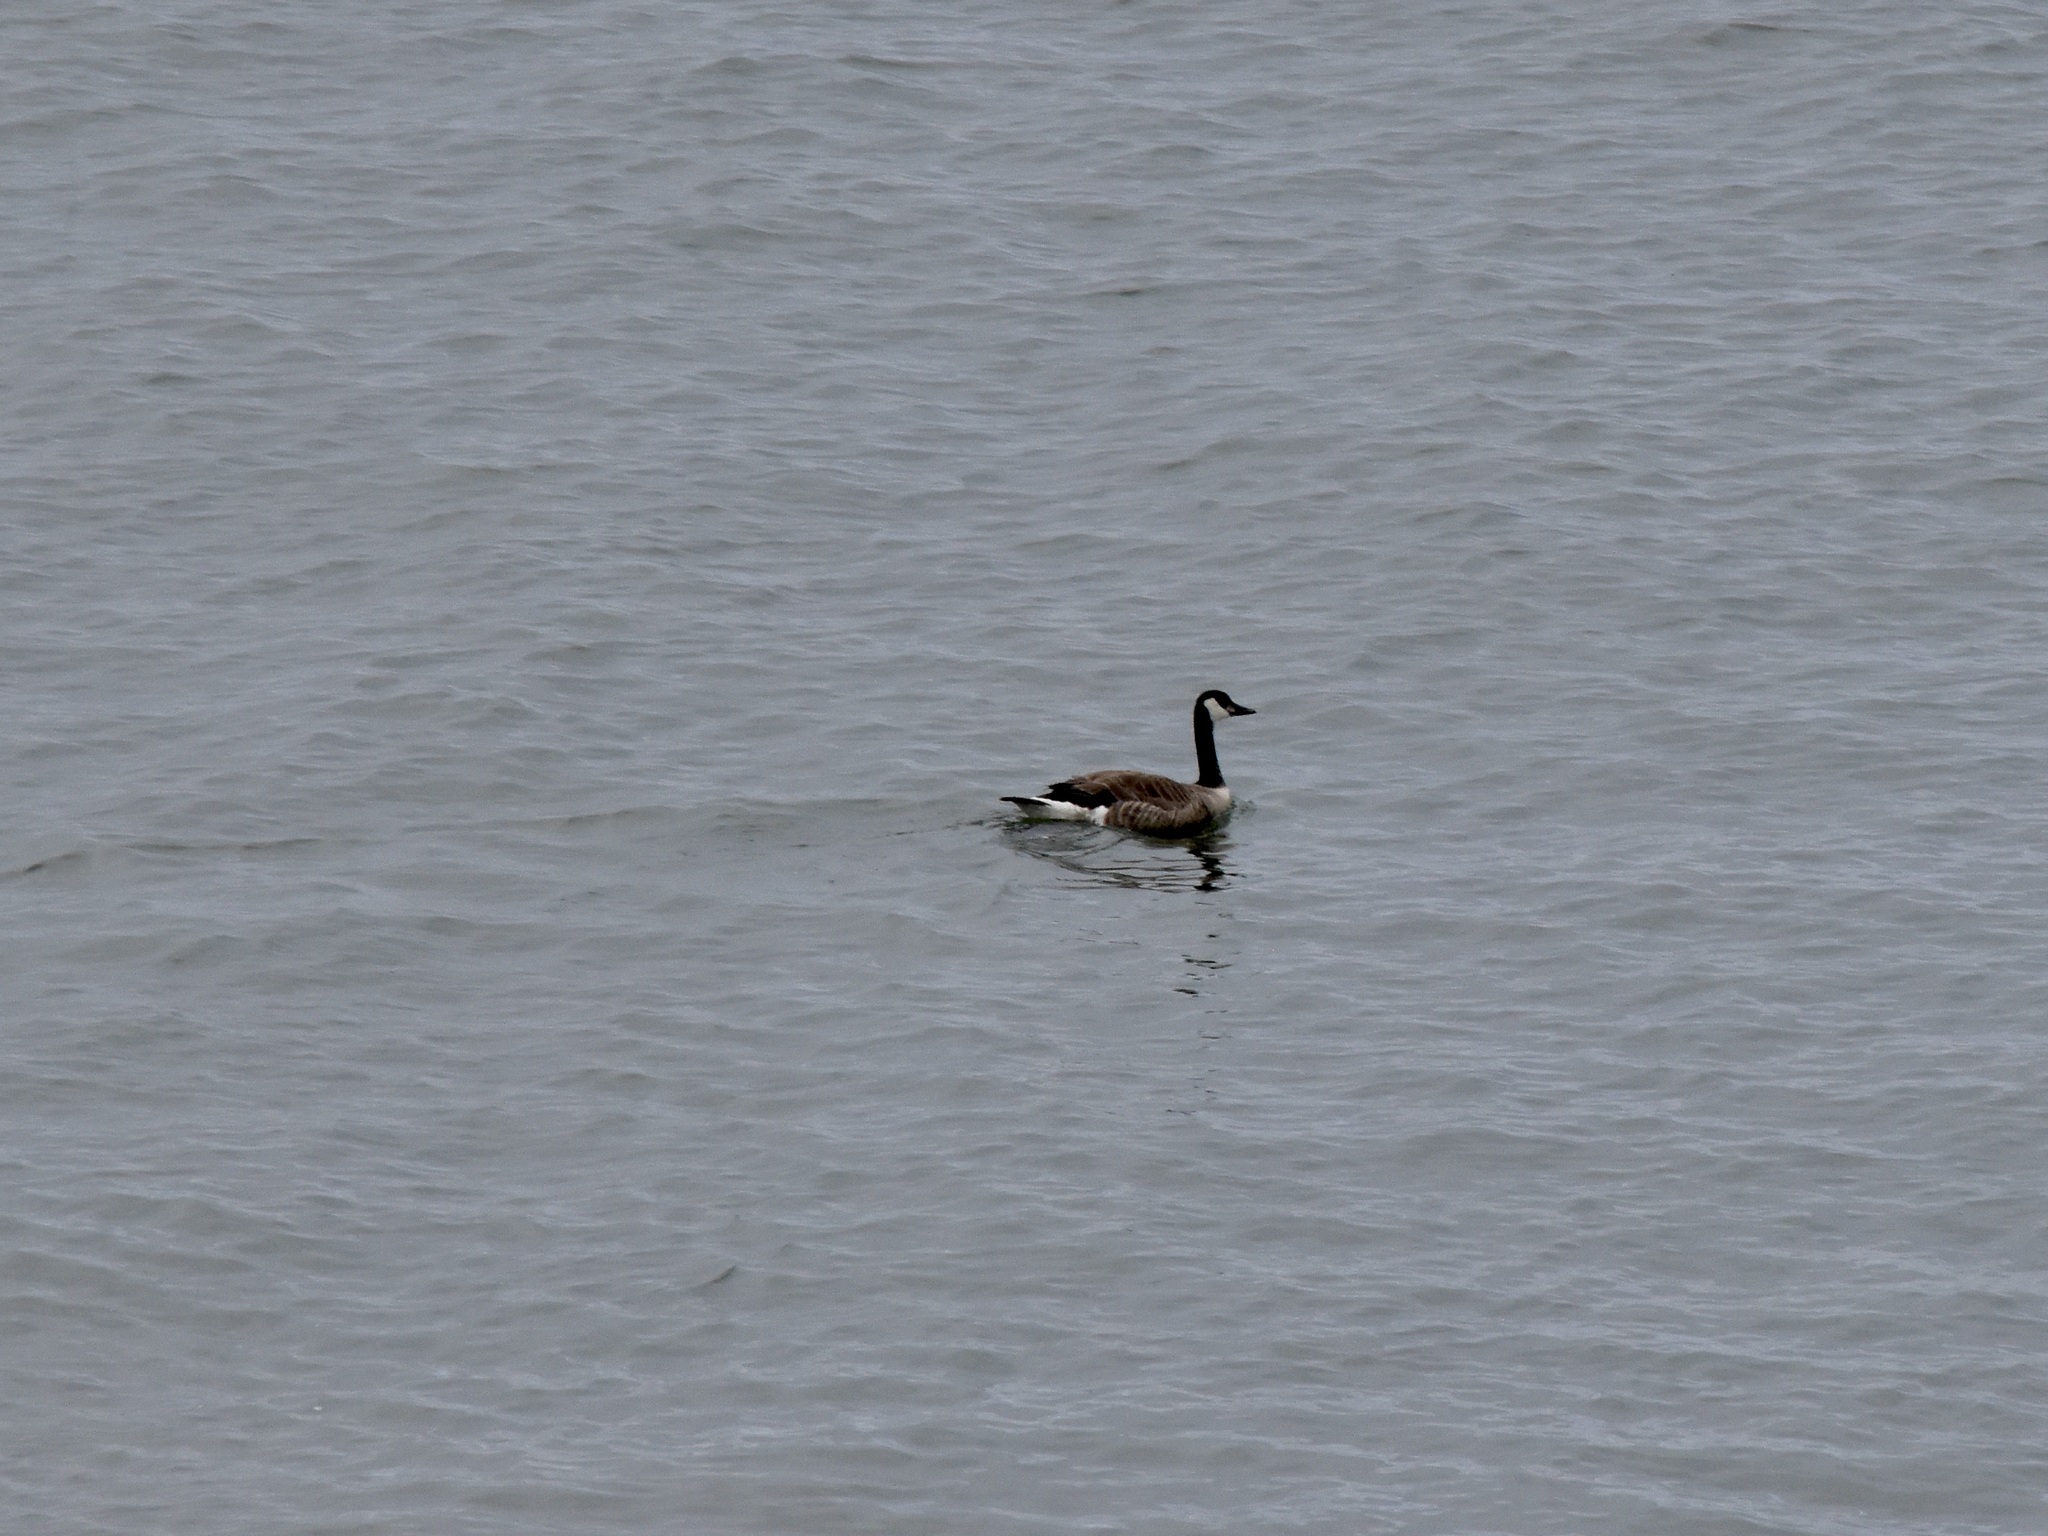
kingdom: Animalia
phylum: Chordata
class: Aves
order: Anseriformes
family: Anatidae
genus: Branta
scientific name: Branta canadensis
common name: Canada goose
